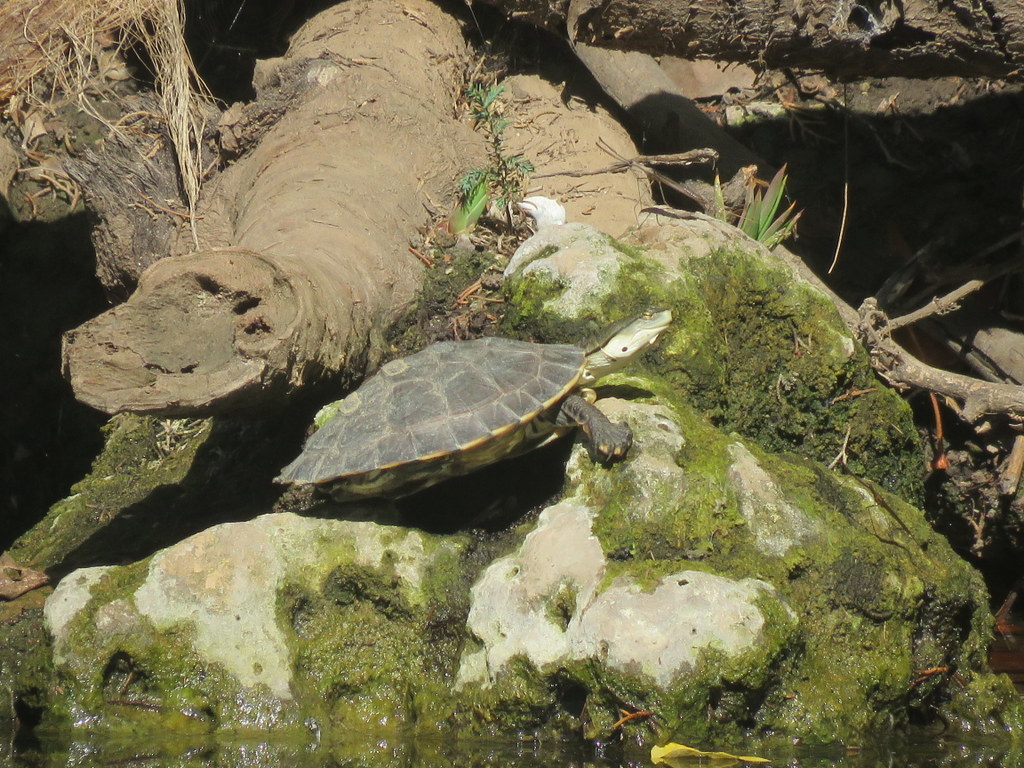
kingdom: Animalia
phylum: Chordata
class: Testudines
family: Chelidae
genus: Phrynops
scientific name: Phrynops hilarii
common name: Side-necked turtle of saint hillaire
